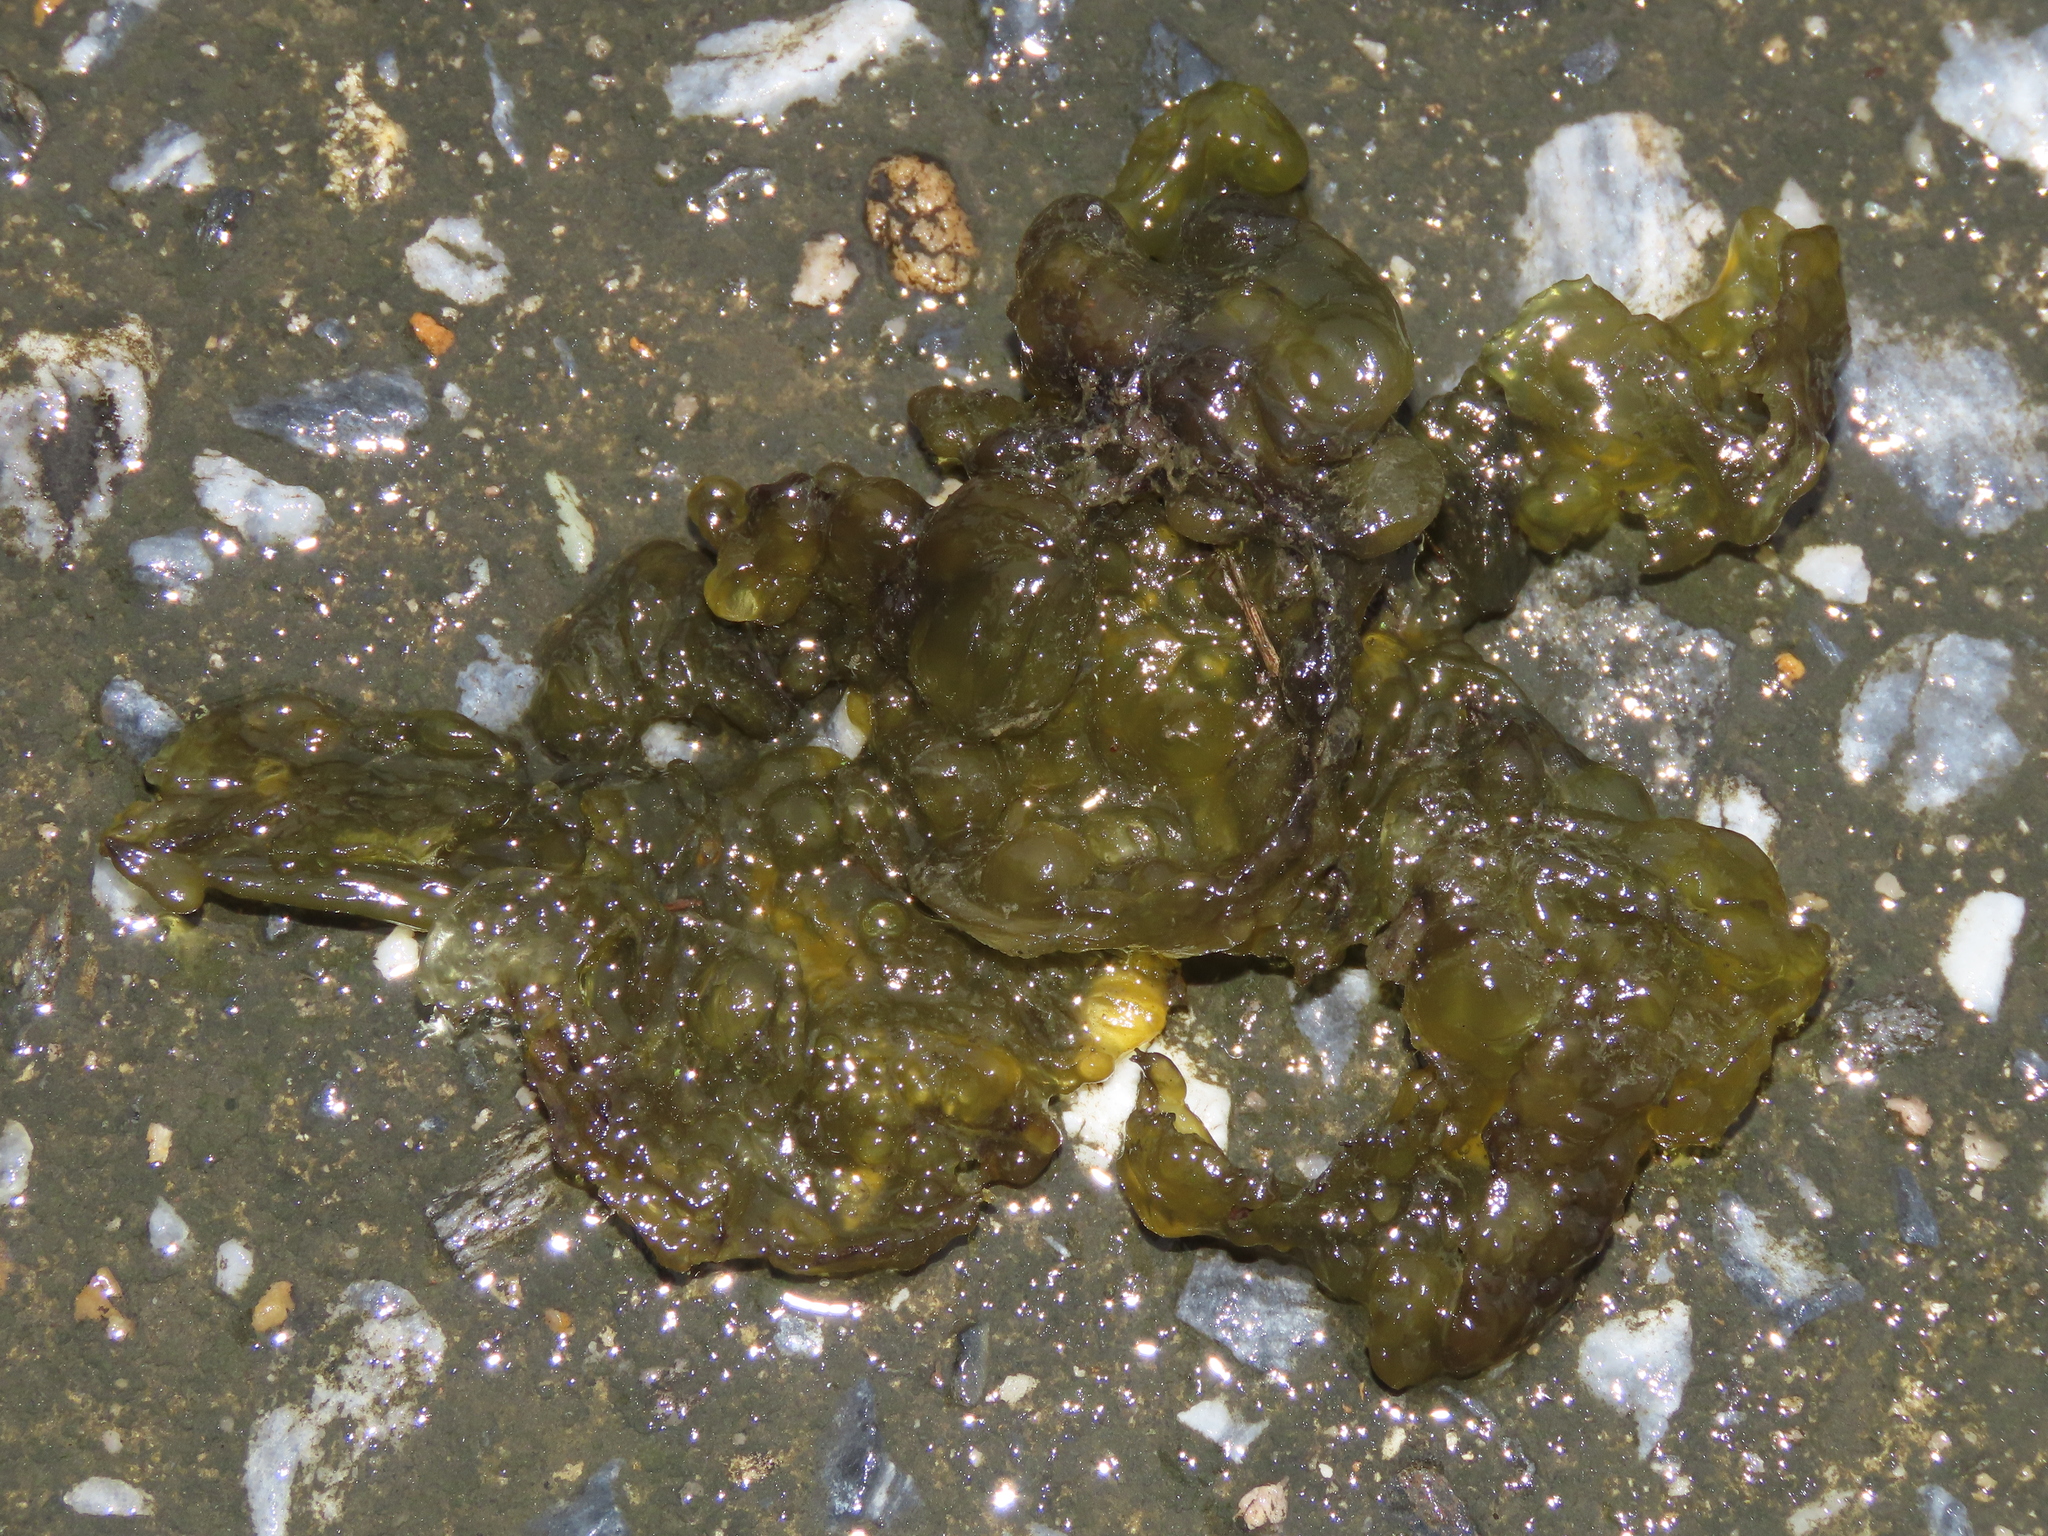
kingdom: Bacteria
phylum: Cyanobacteria
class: Cyanobacteriia
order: Cyanobacteriales
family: Nostocaceae
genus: Nostoc
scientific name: Nostoc commune
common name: Star jelly
